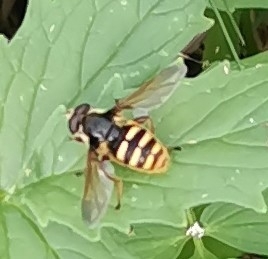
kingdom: Animalia
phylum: Arthropoda
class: Insecta
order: Diptera
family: Syrphidae
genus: Sericomyia
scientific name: Sericomyia silentis
